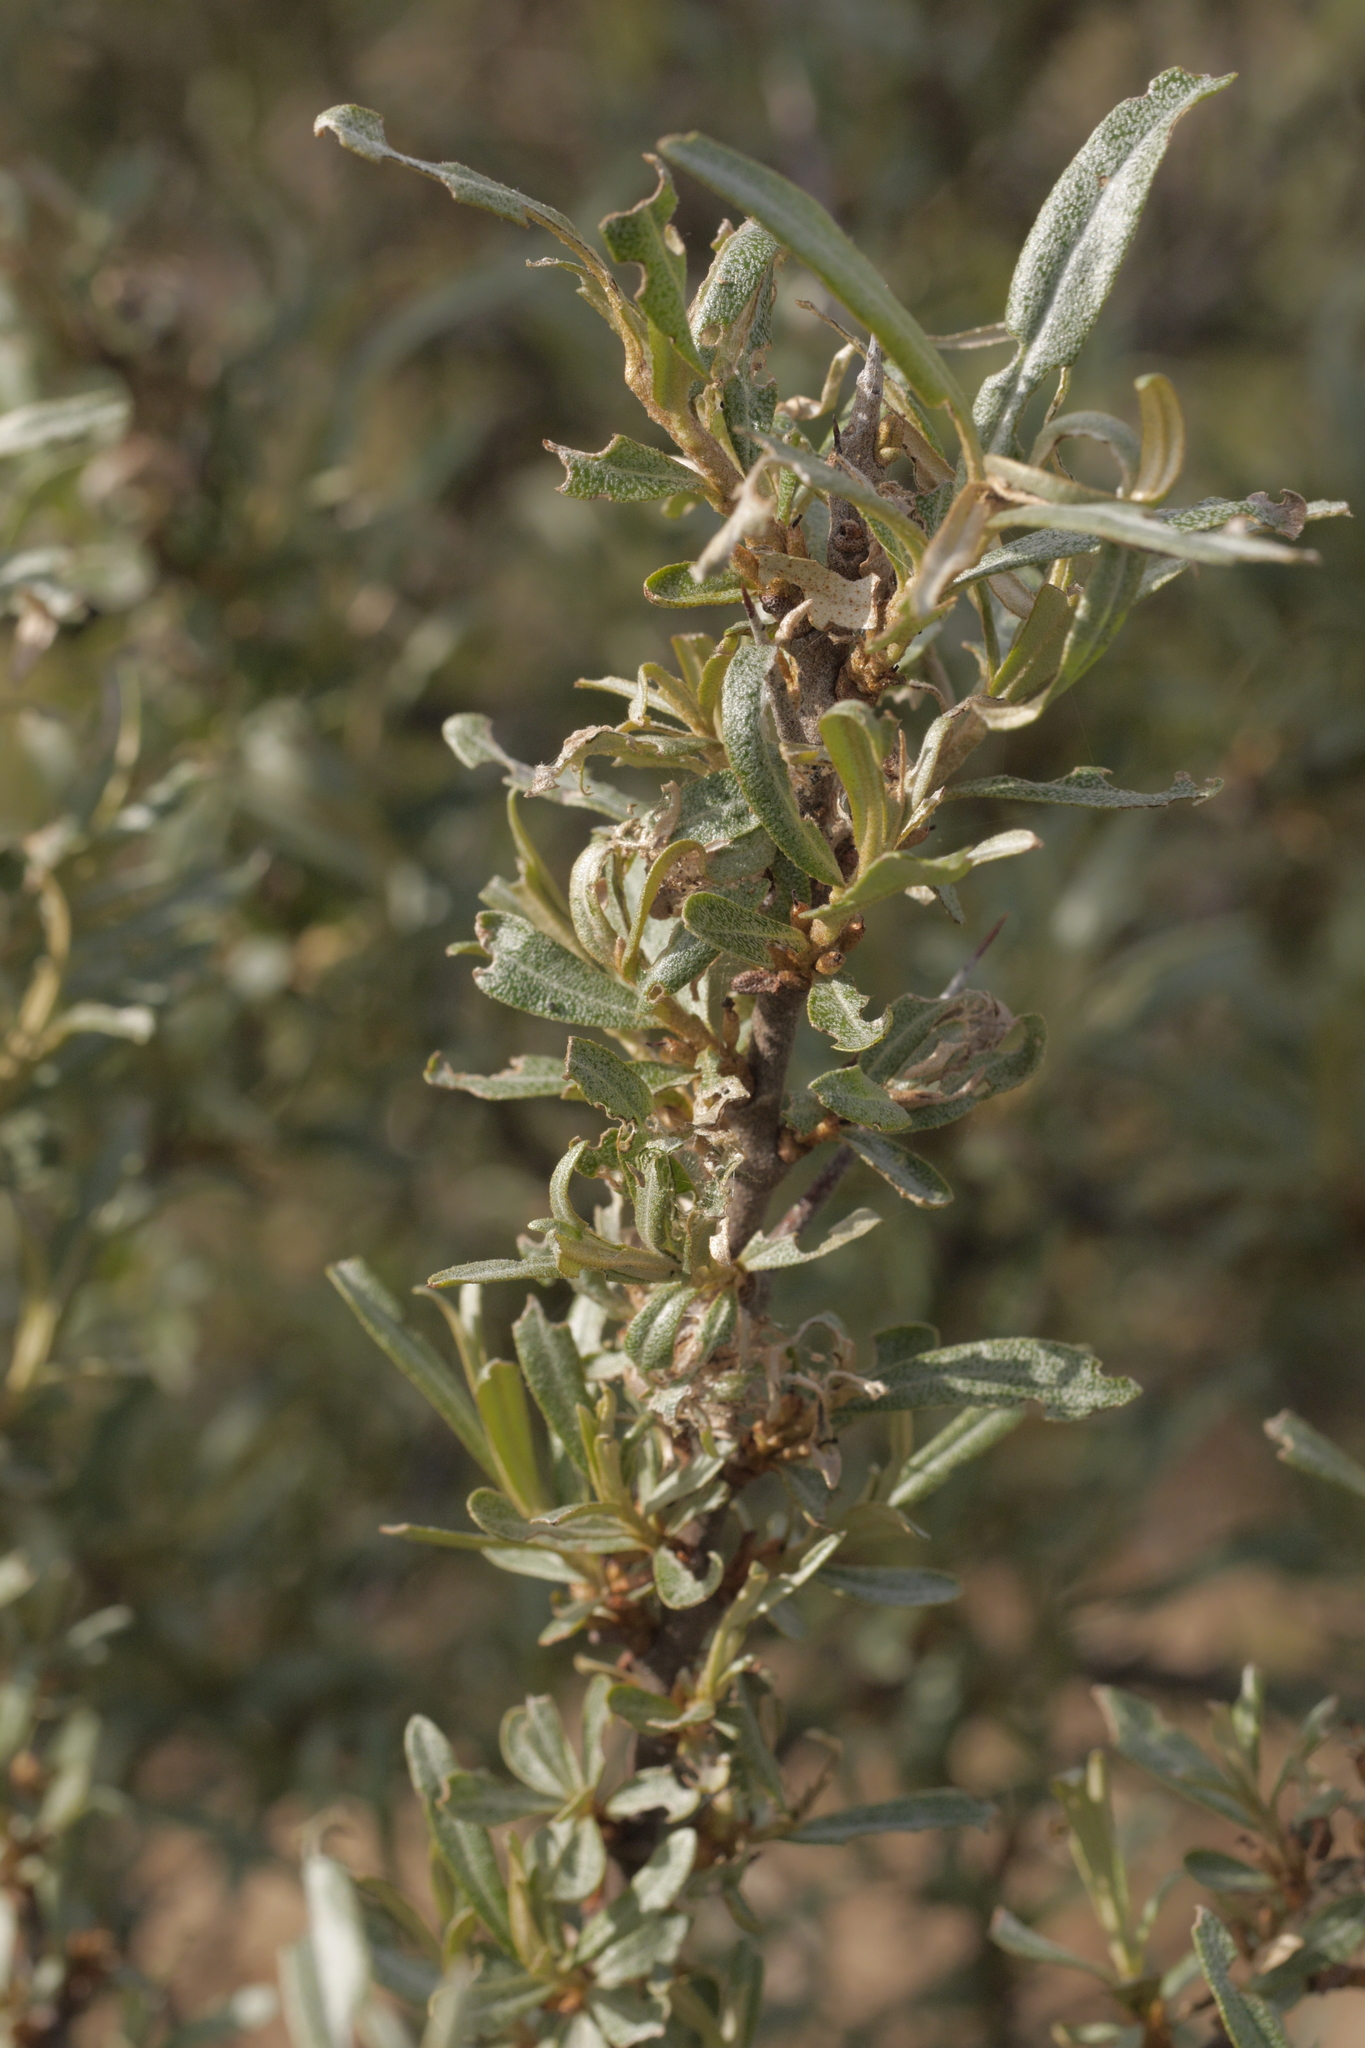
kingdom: Plantae
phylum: Tracheophyta
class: Magnoliopsida
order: Rosales
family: Elaeagnaceae
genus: Hippophae
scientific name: Hippophae rhamnoides
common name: Sea-buckthorn
